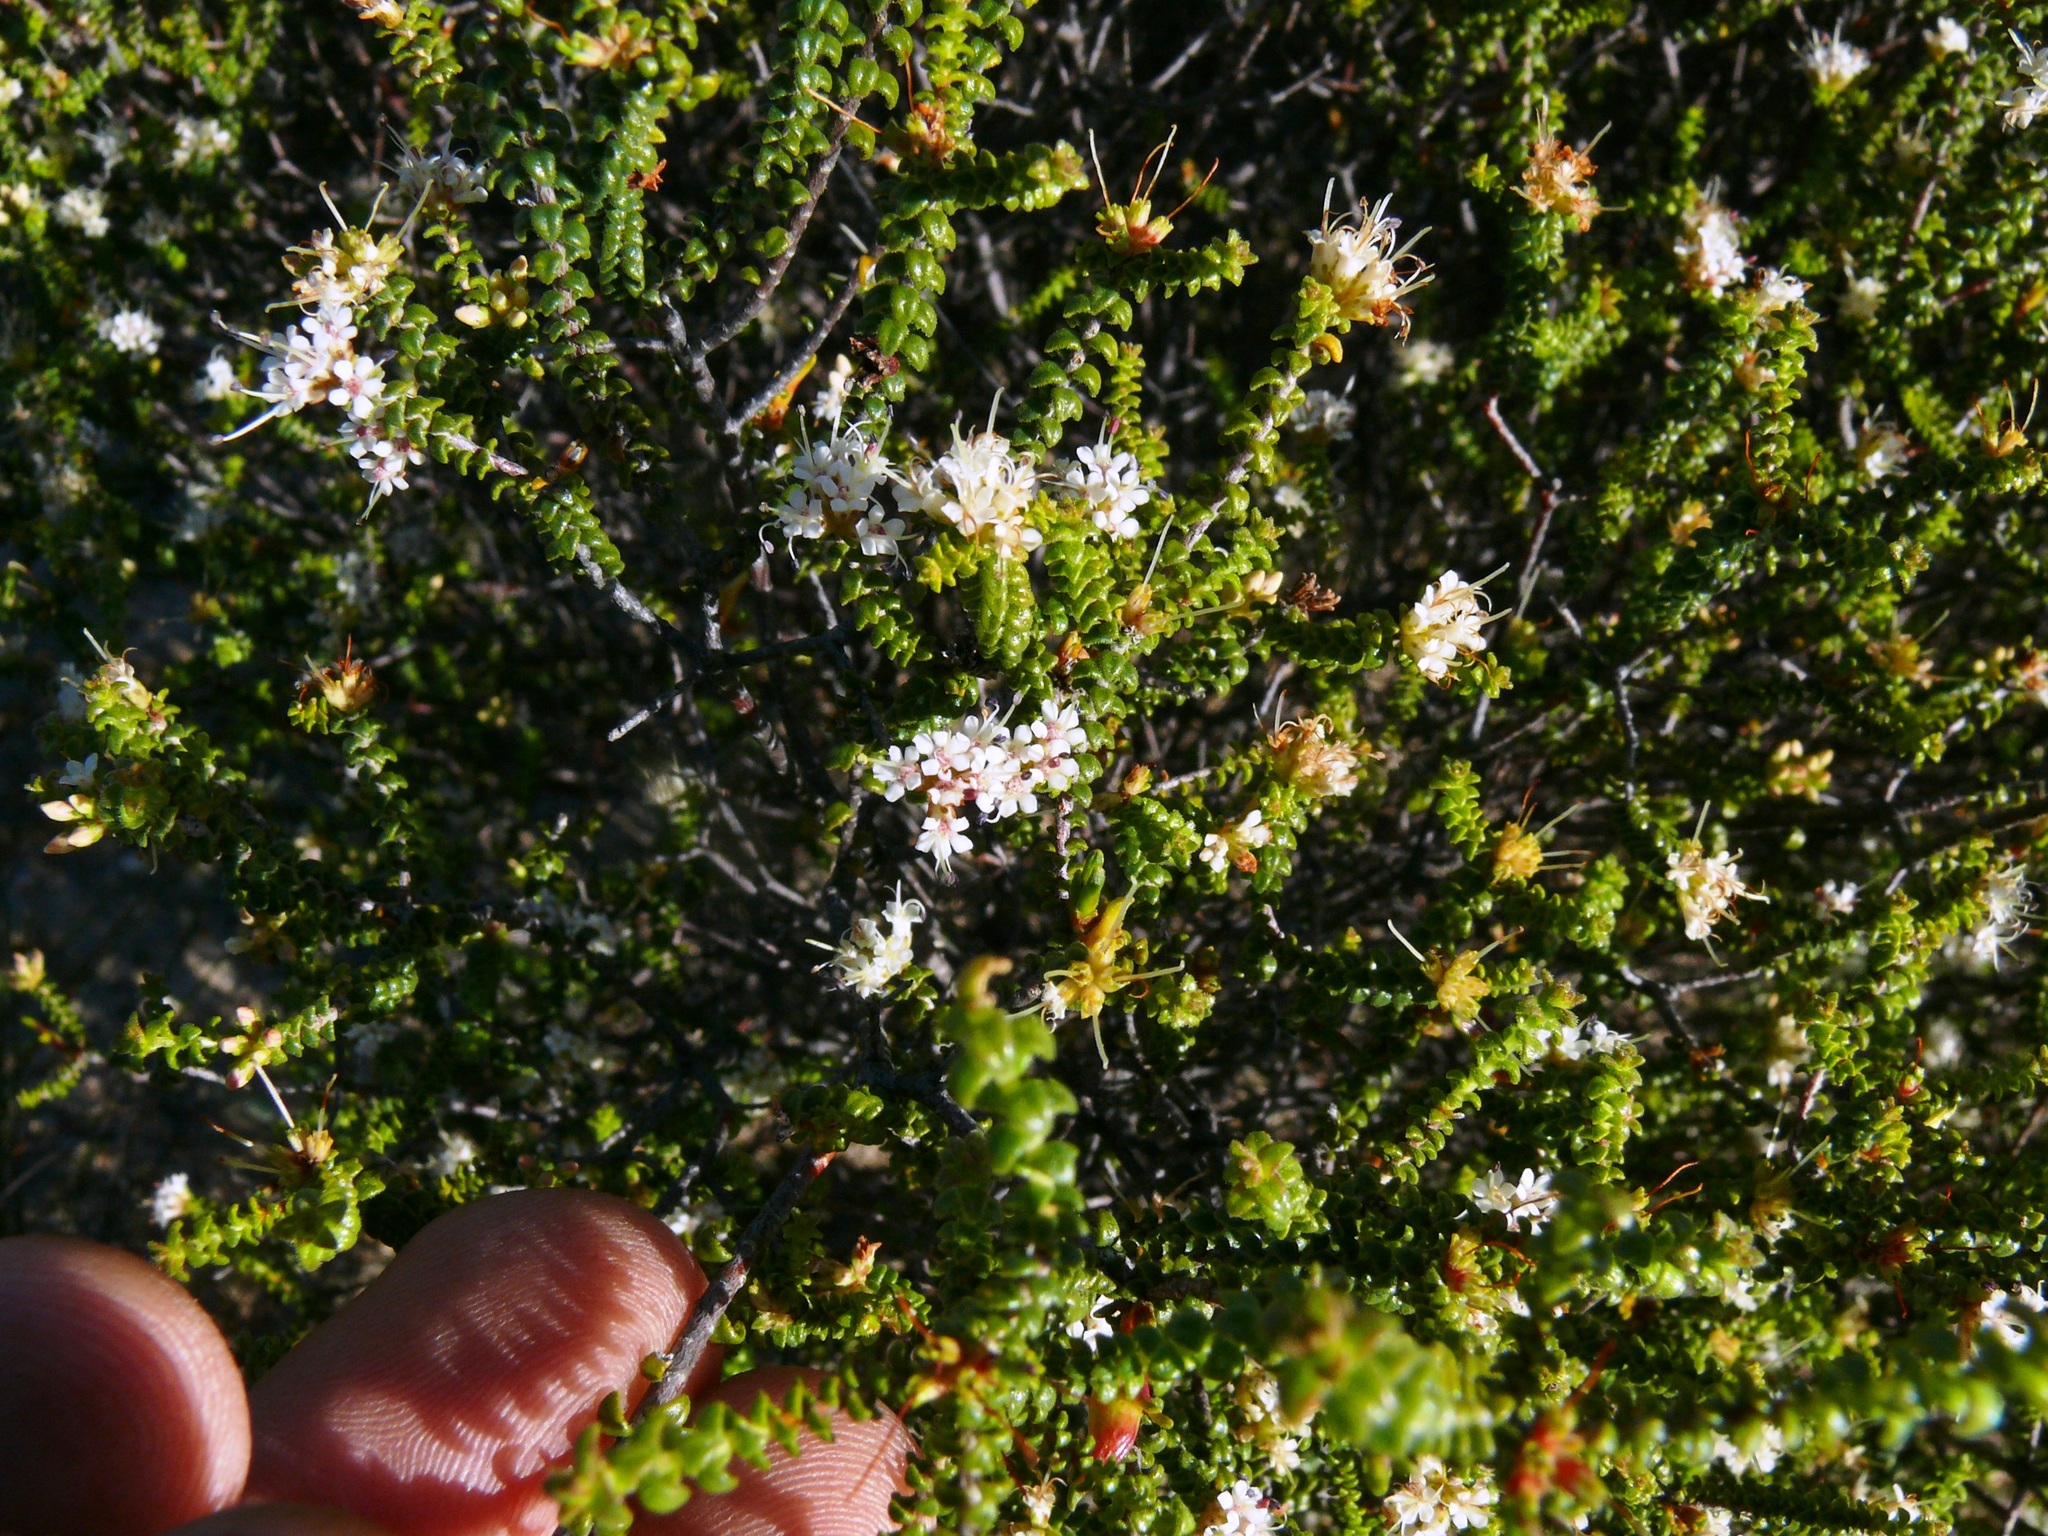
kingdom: Plantae
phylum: Tracheophyta
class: Magnoliopsida
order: Sapindales
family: Rutaceae
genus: Macrostylis
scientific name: Macrostylis squarrosa
